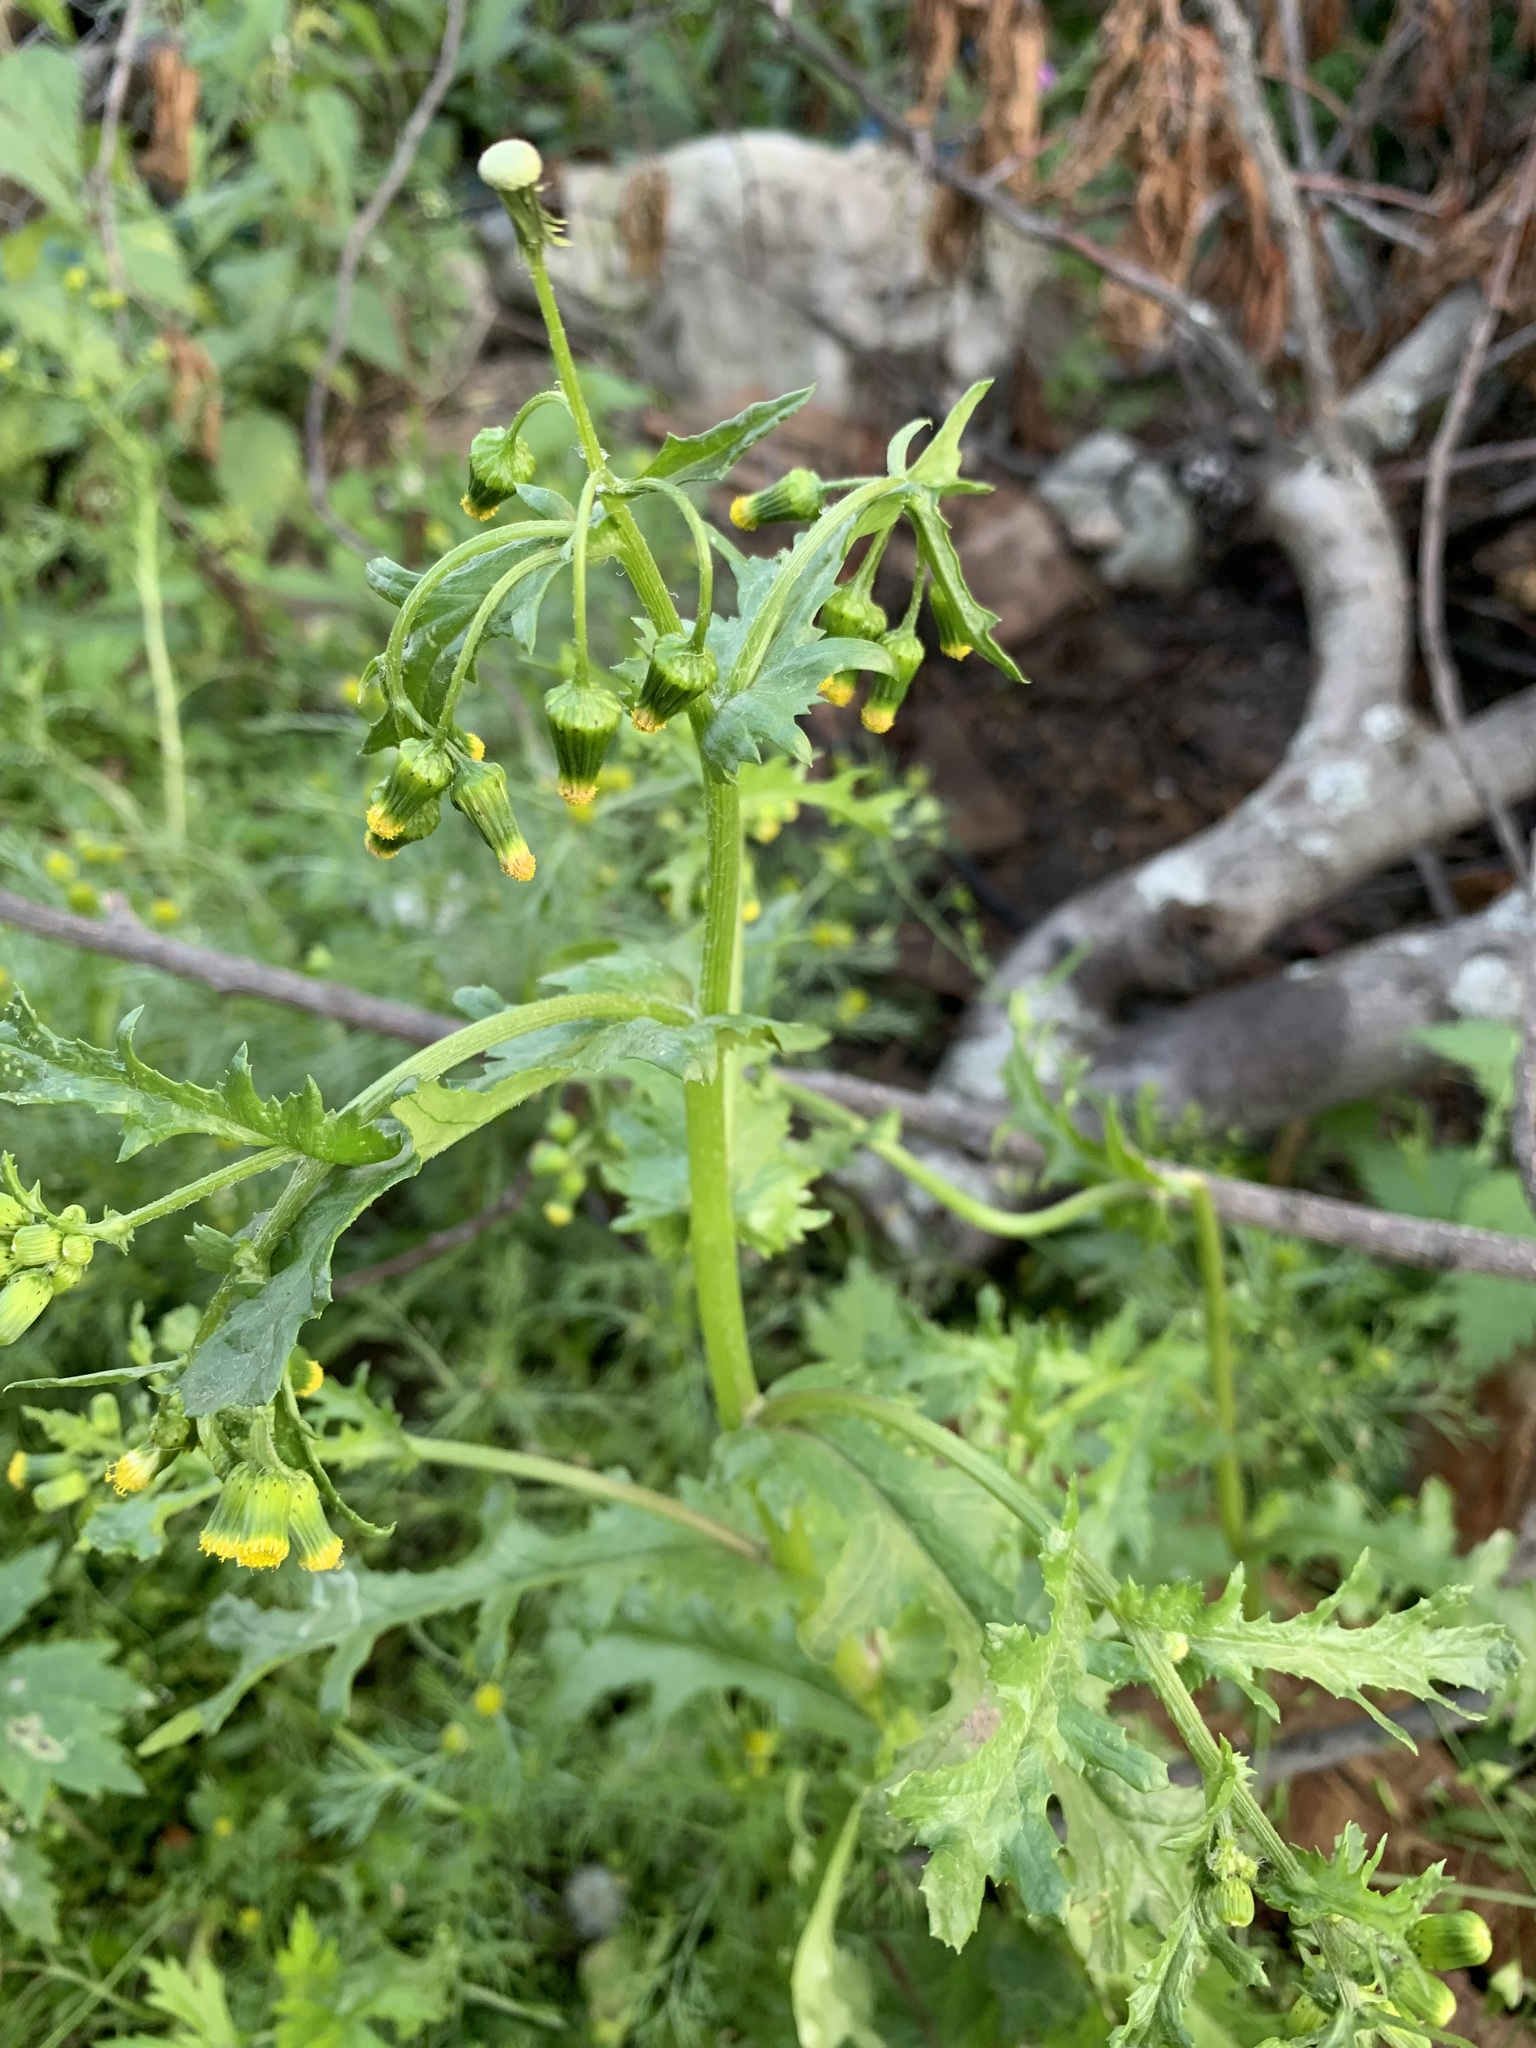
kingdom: Plantae
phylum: Tracheophyta
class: Magnoliopsida
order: Asterales
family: Asteraceae
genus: Senecio
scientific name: Senecio vulgaris
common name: Old-man-in-the-spring
